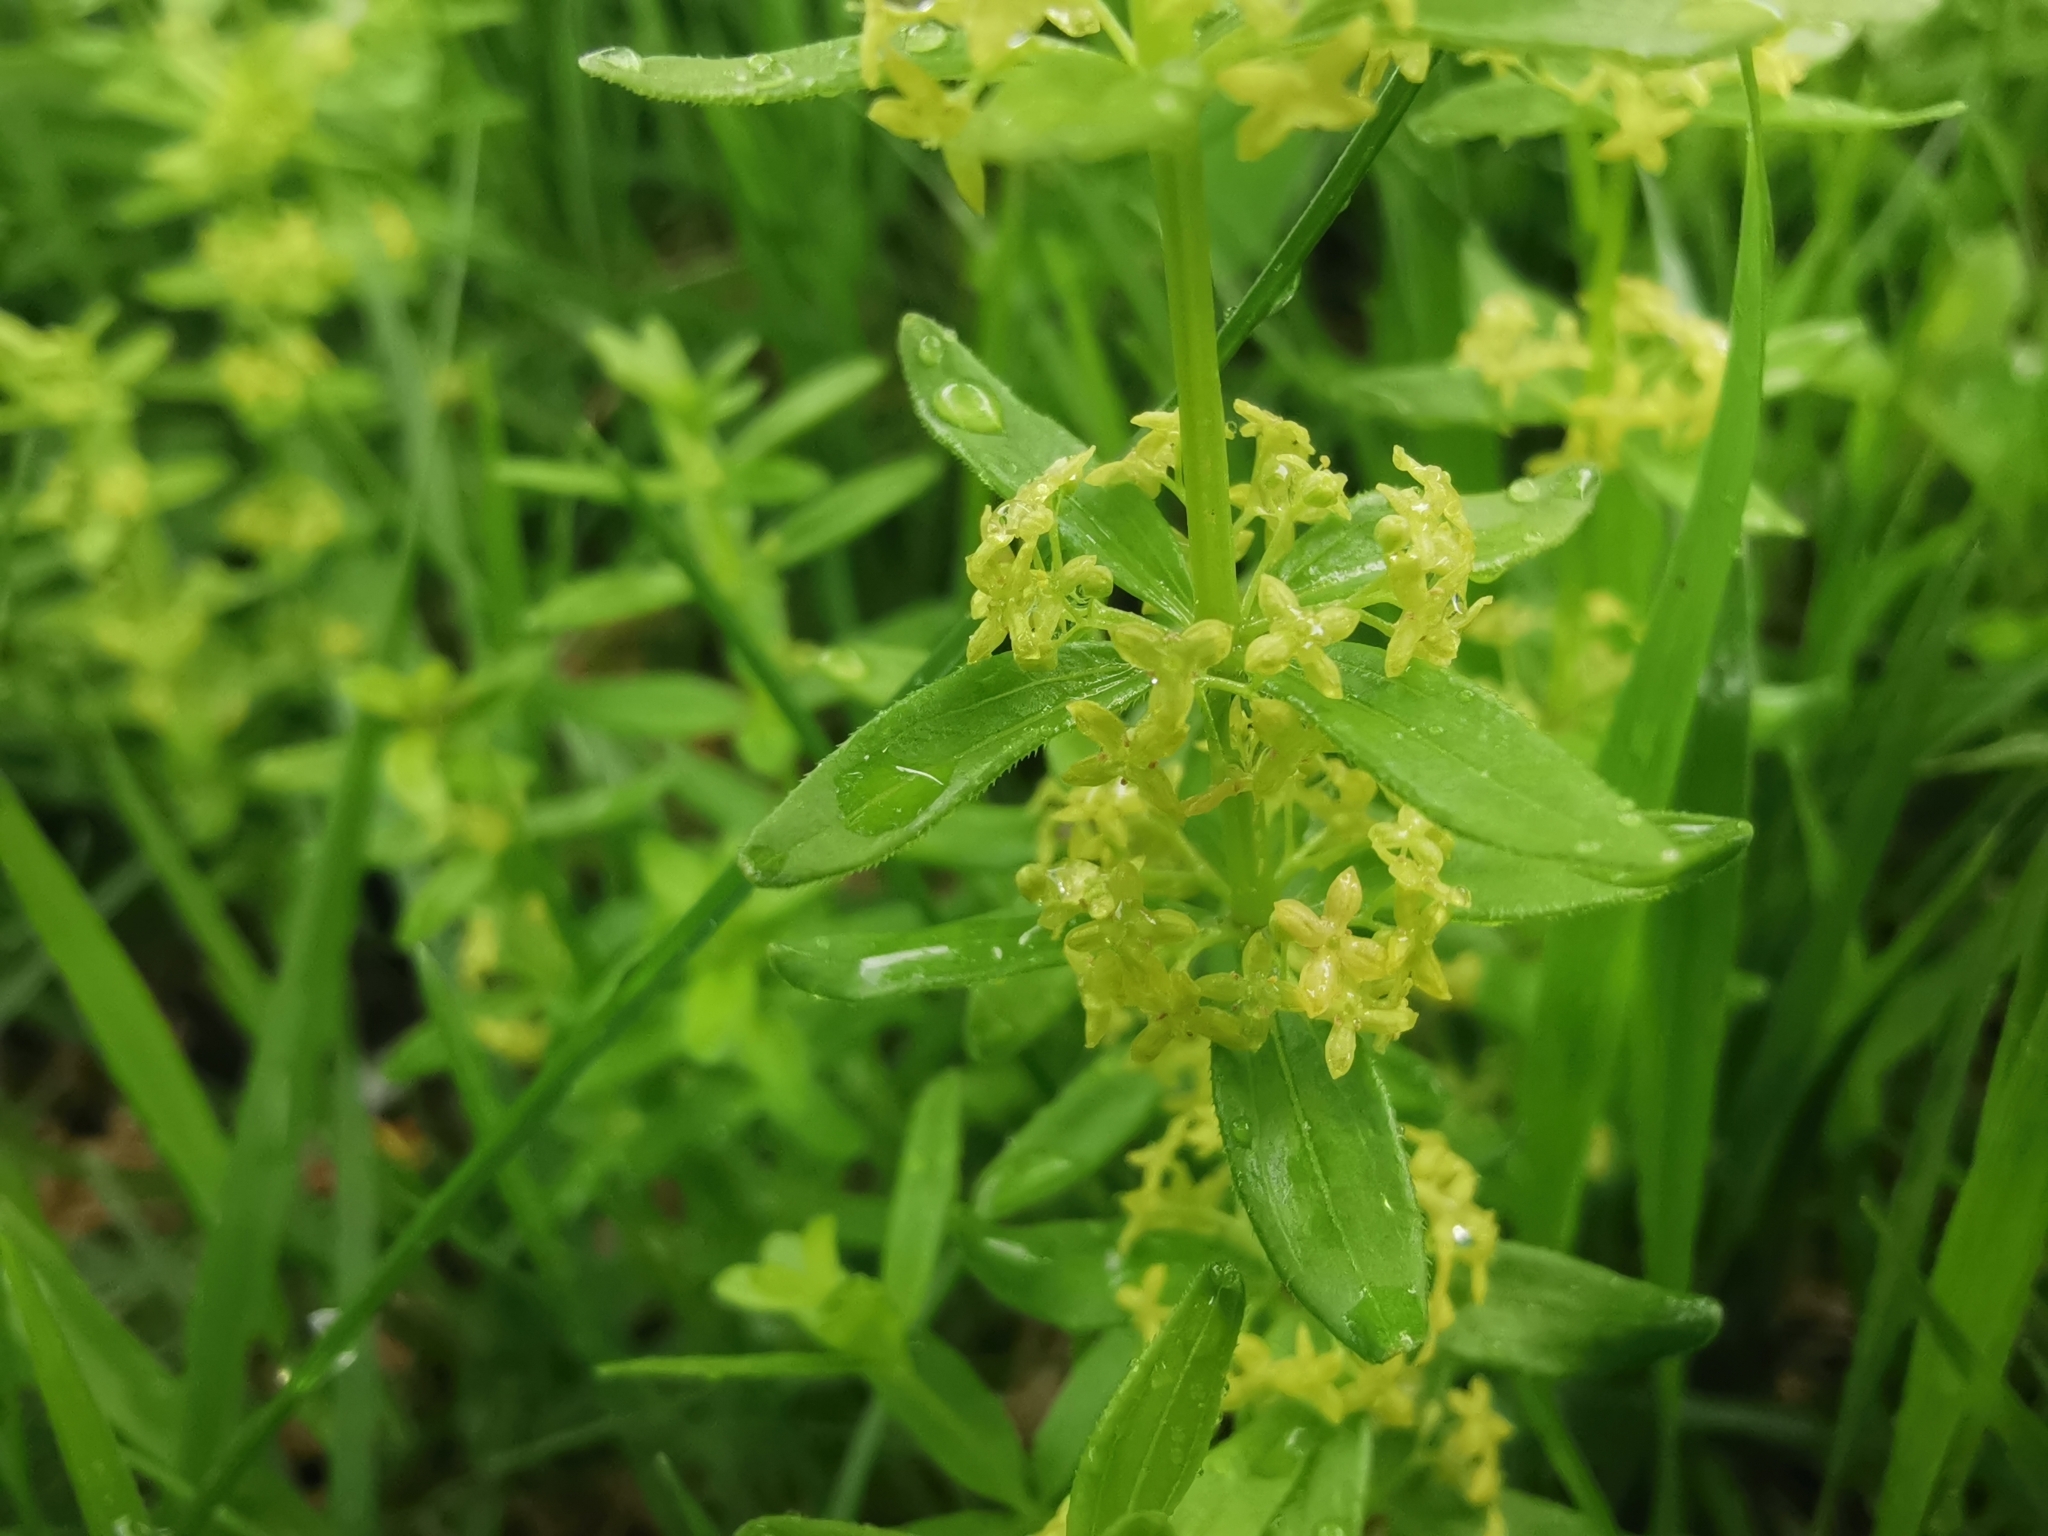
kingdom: Plantae
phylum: Tracheophyta
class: Magnoliopsida
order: Gentianales
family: Rubiaceae
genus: Cruciata
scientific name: Cruciata glabra
